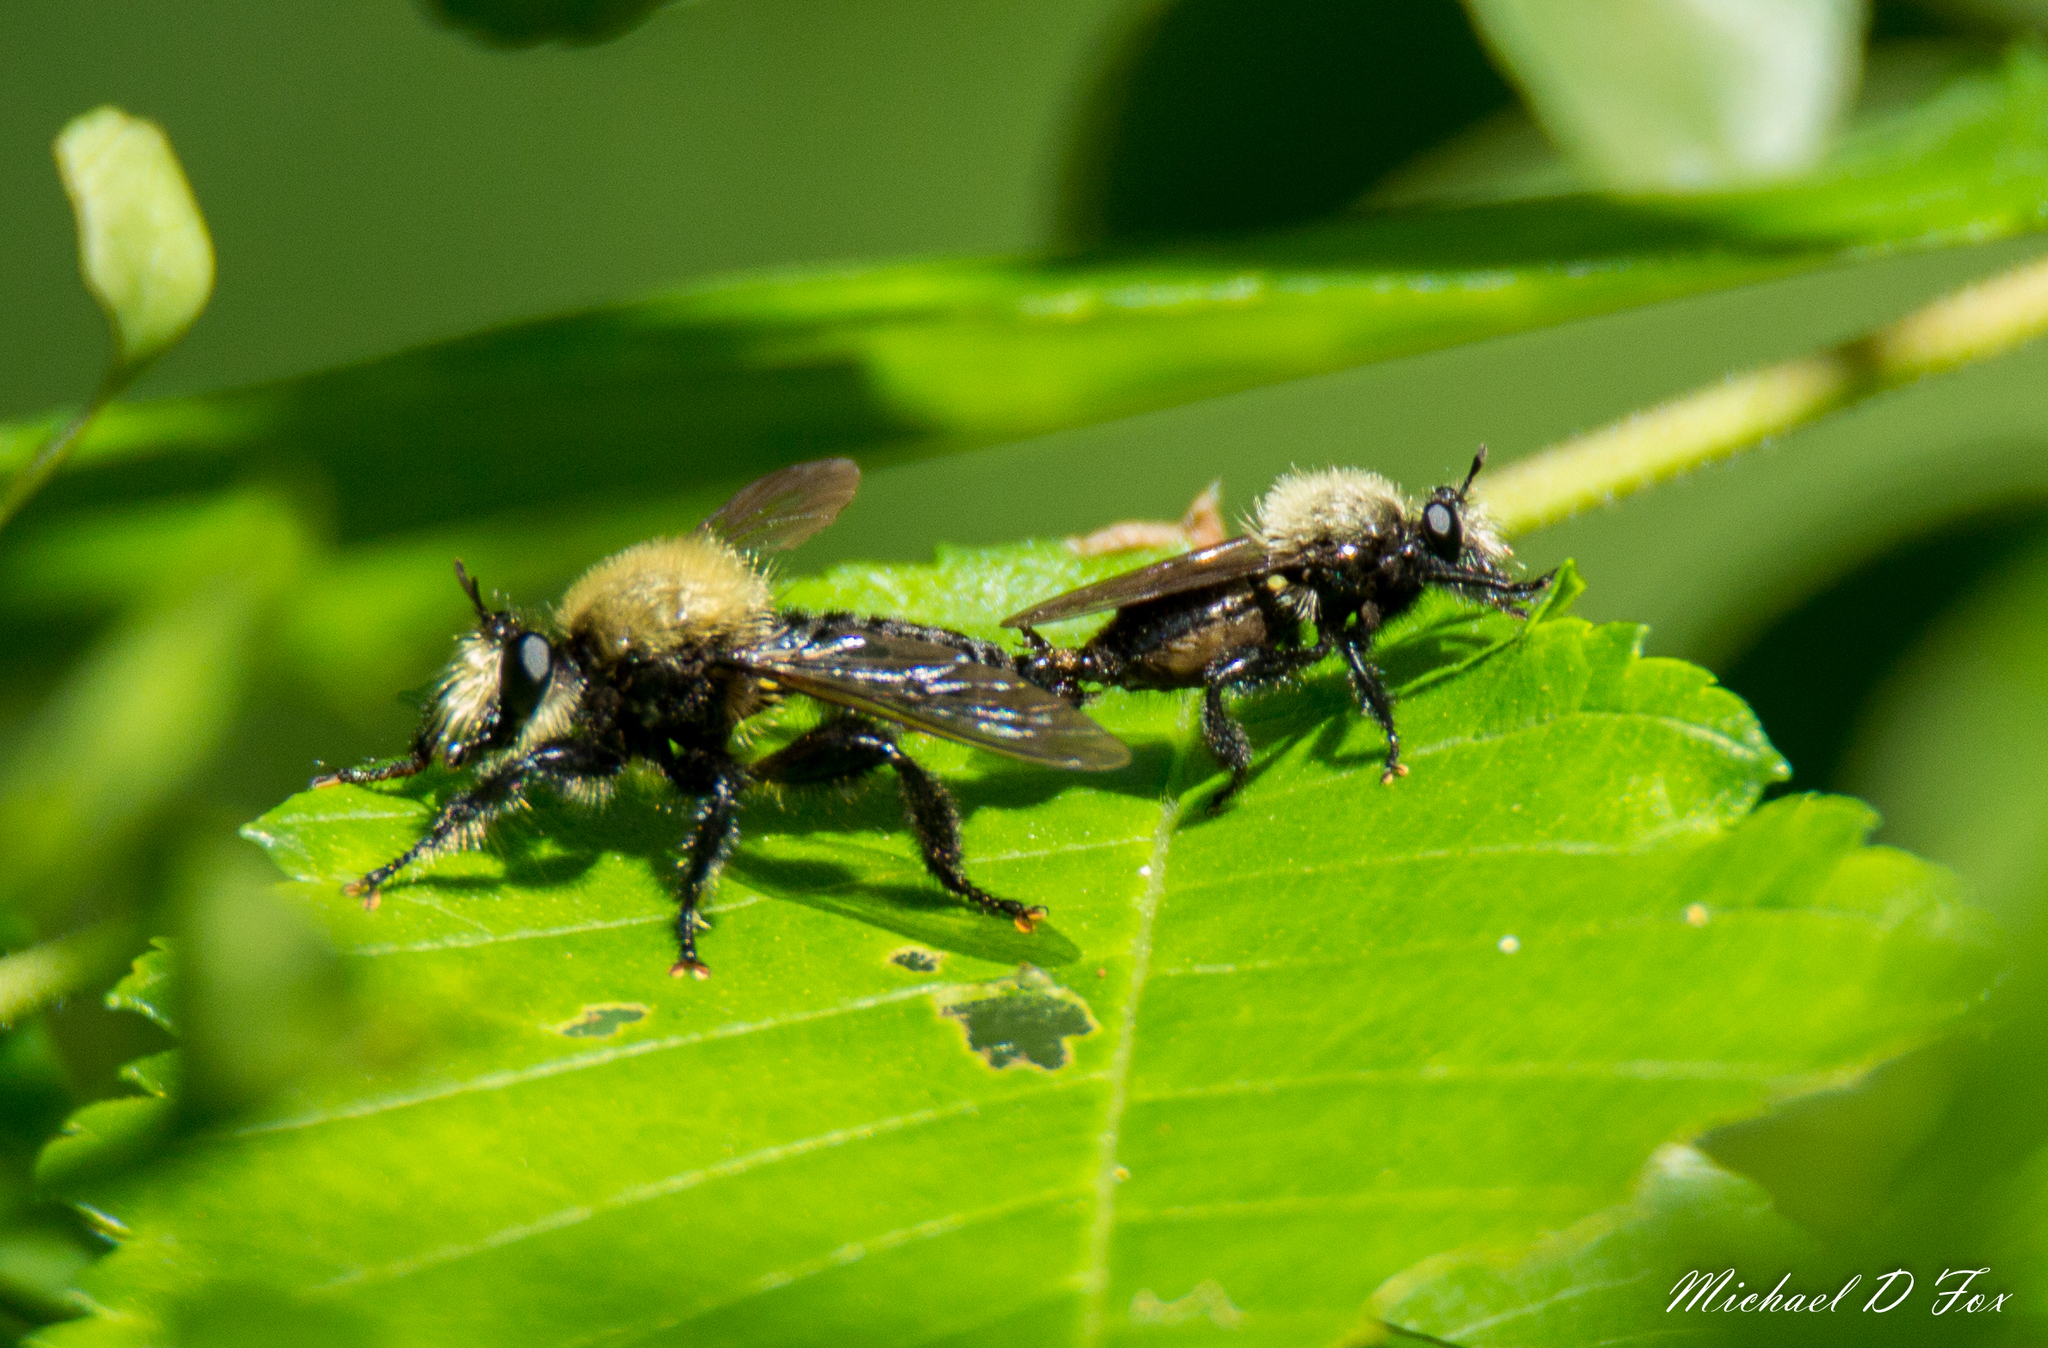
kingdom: Animalia
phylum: Arthropoda
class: Insecta
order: Diptera
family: Asilidae
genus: Laphria
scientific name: Laphria flavicollis
